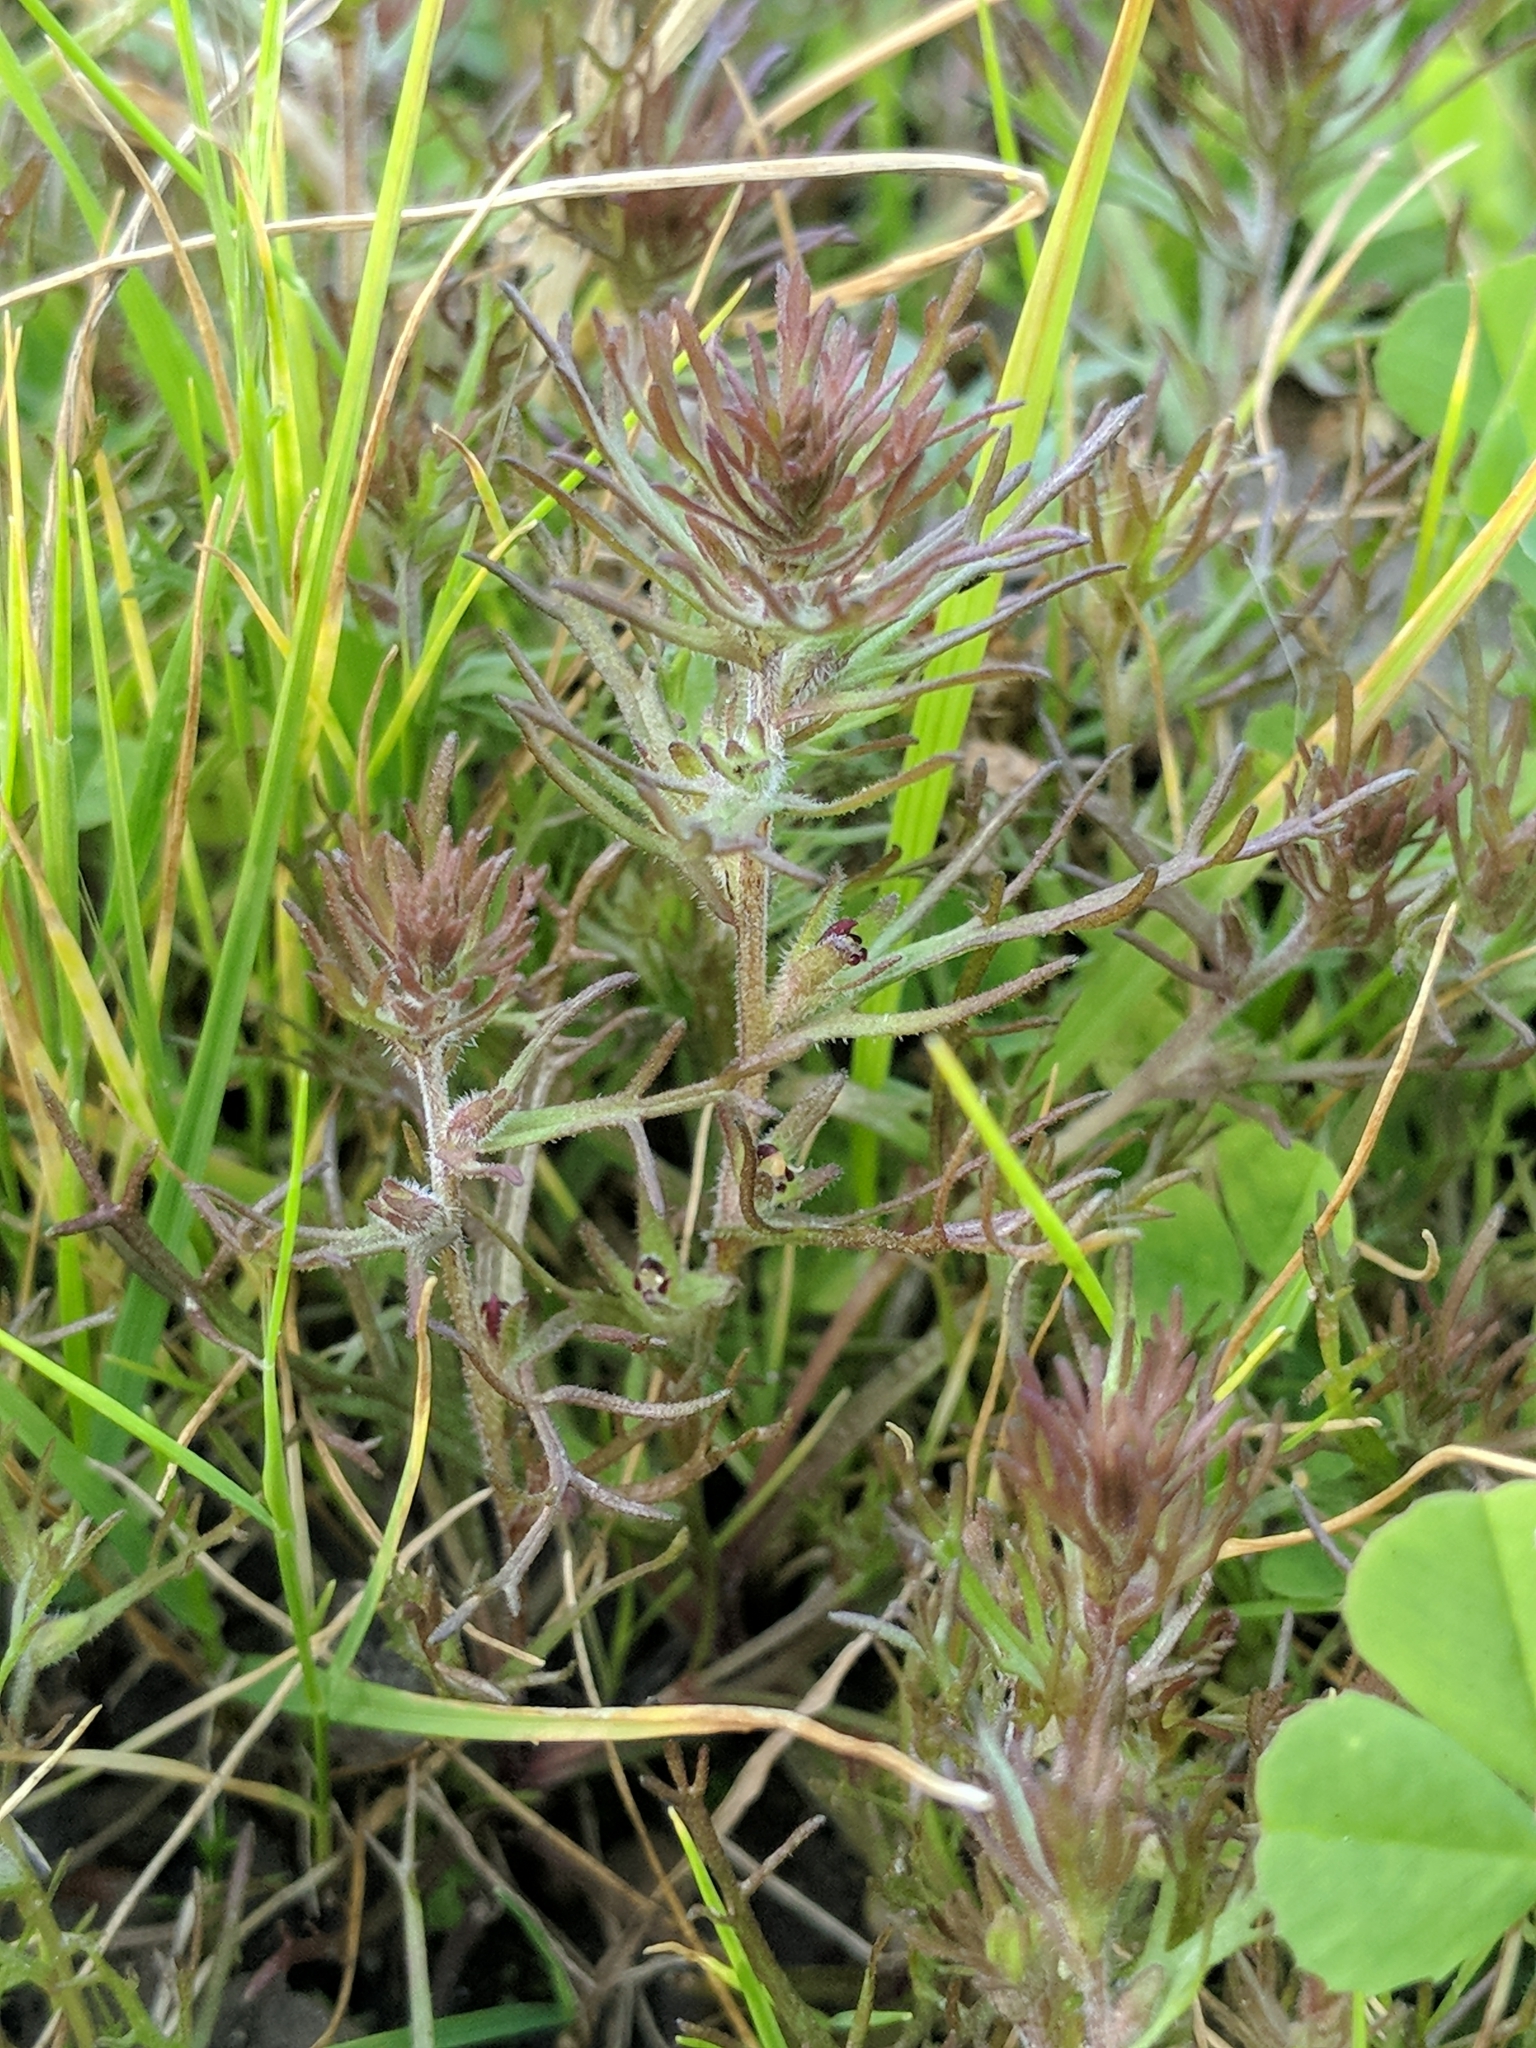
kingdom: Plantae
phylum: Tracheophyta
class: Magnoliopsida
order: Lamiales
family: Orobanchaceae
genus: Triphysaria
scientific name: Triphysaria pusilla
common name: Dwarf false owl-clover
